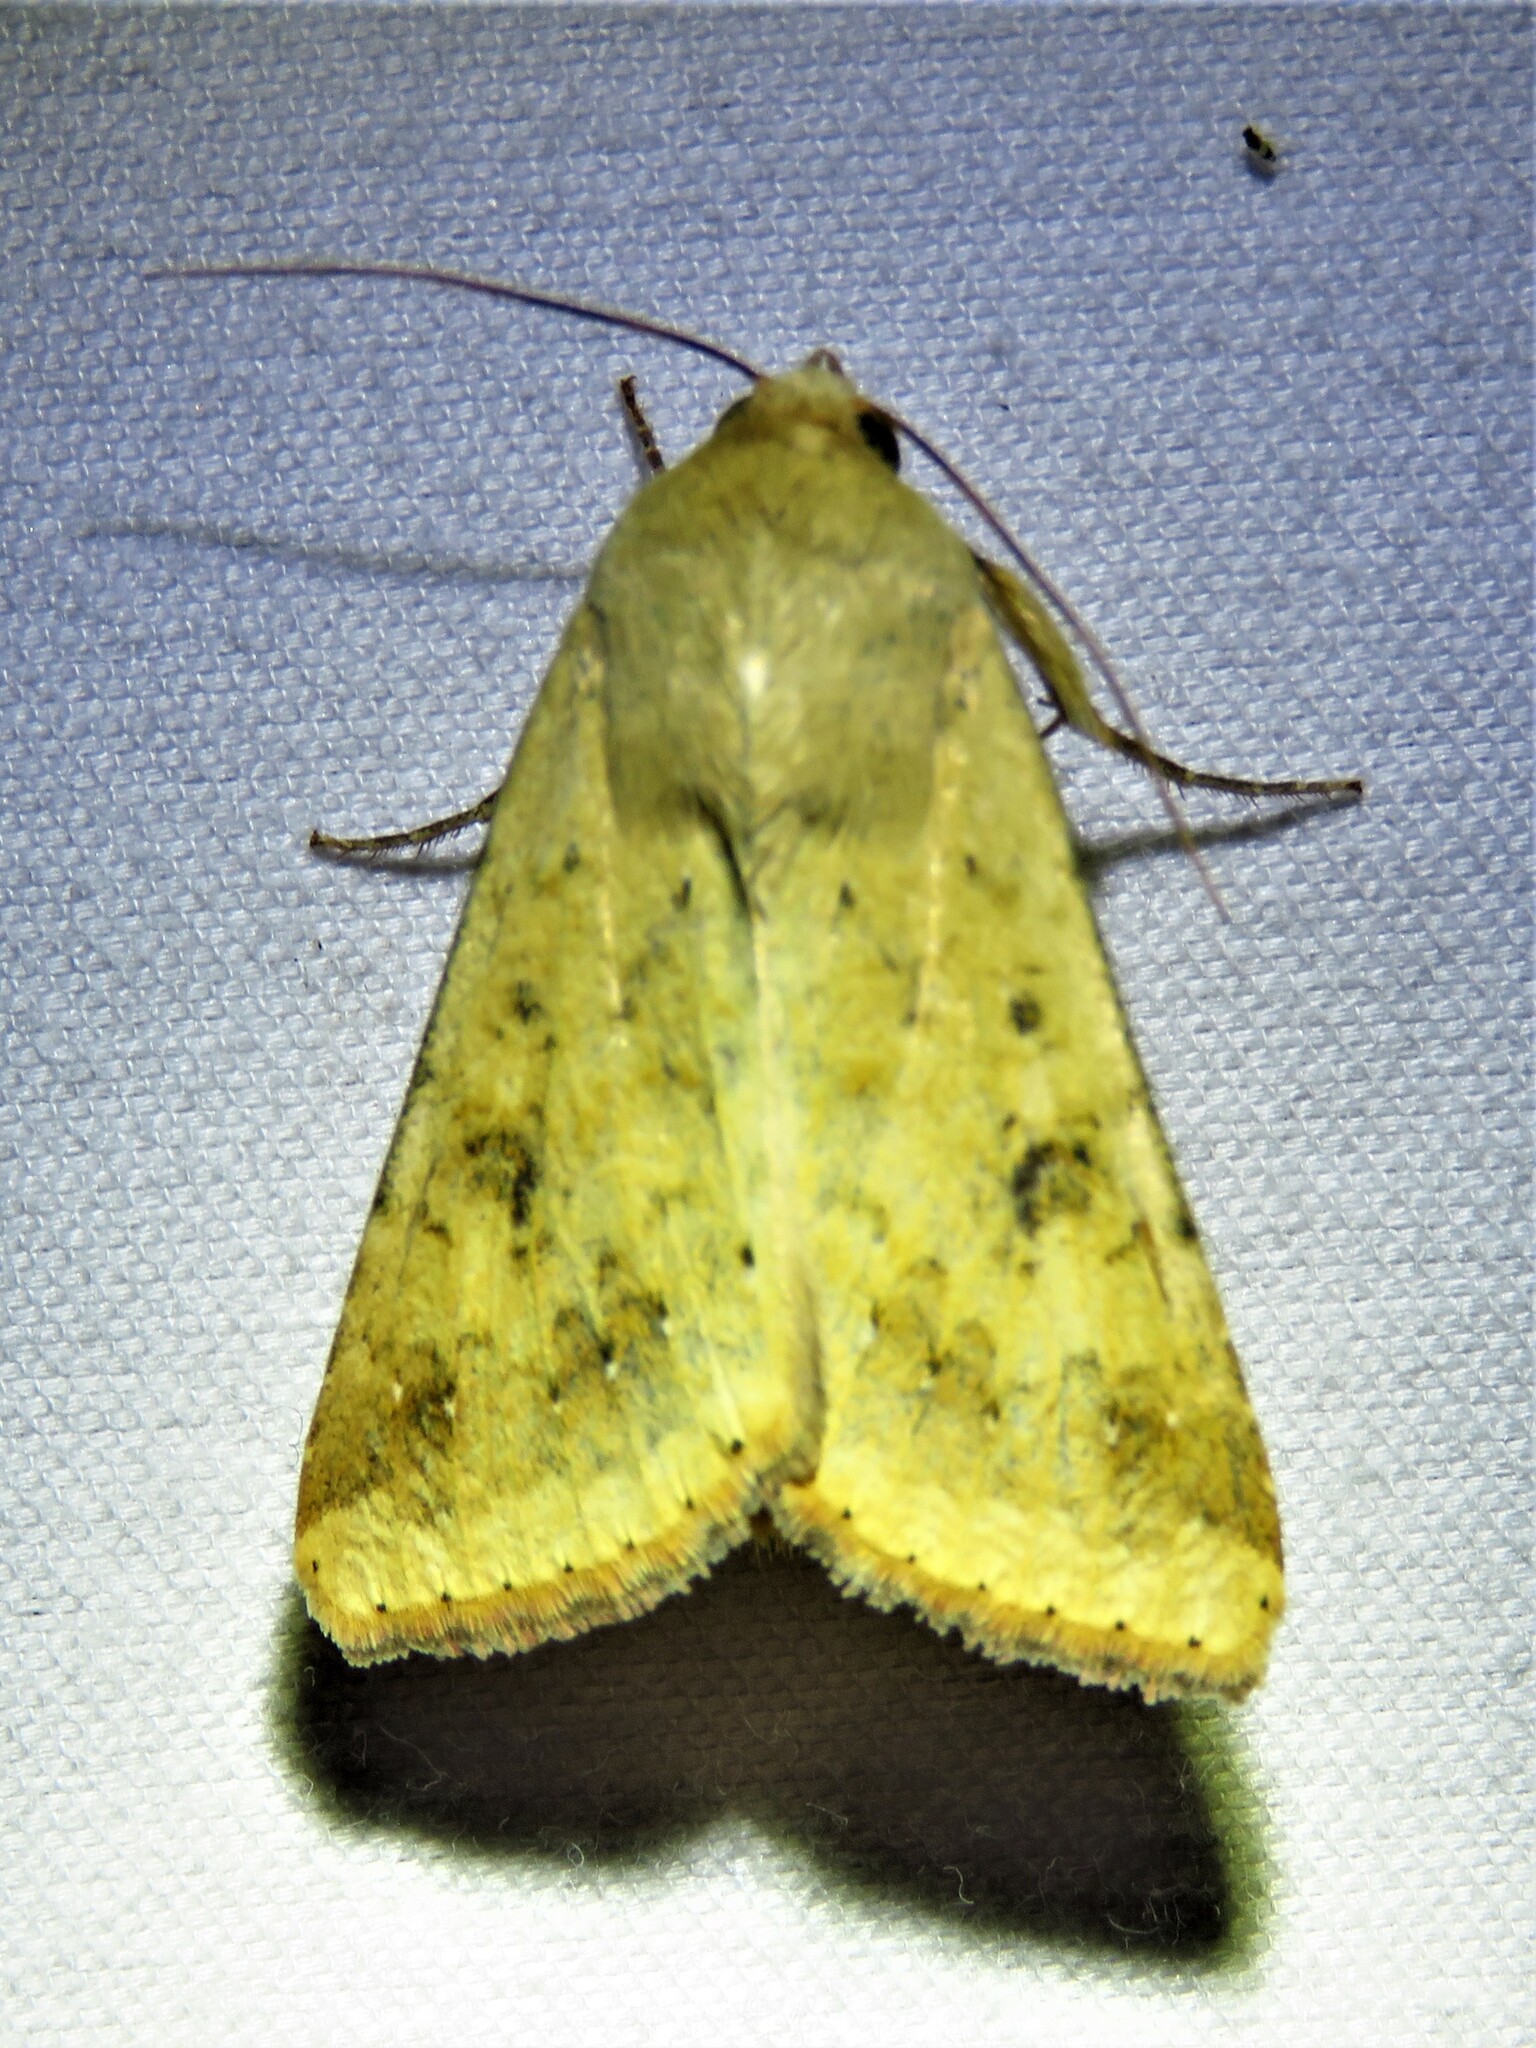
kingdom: Animalia
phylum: Arthropoda
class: Insecta
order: Lepidoptera
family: Noctuidae
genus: Helicoverpa
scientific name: Helicoverpa zea
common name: Bollworm
